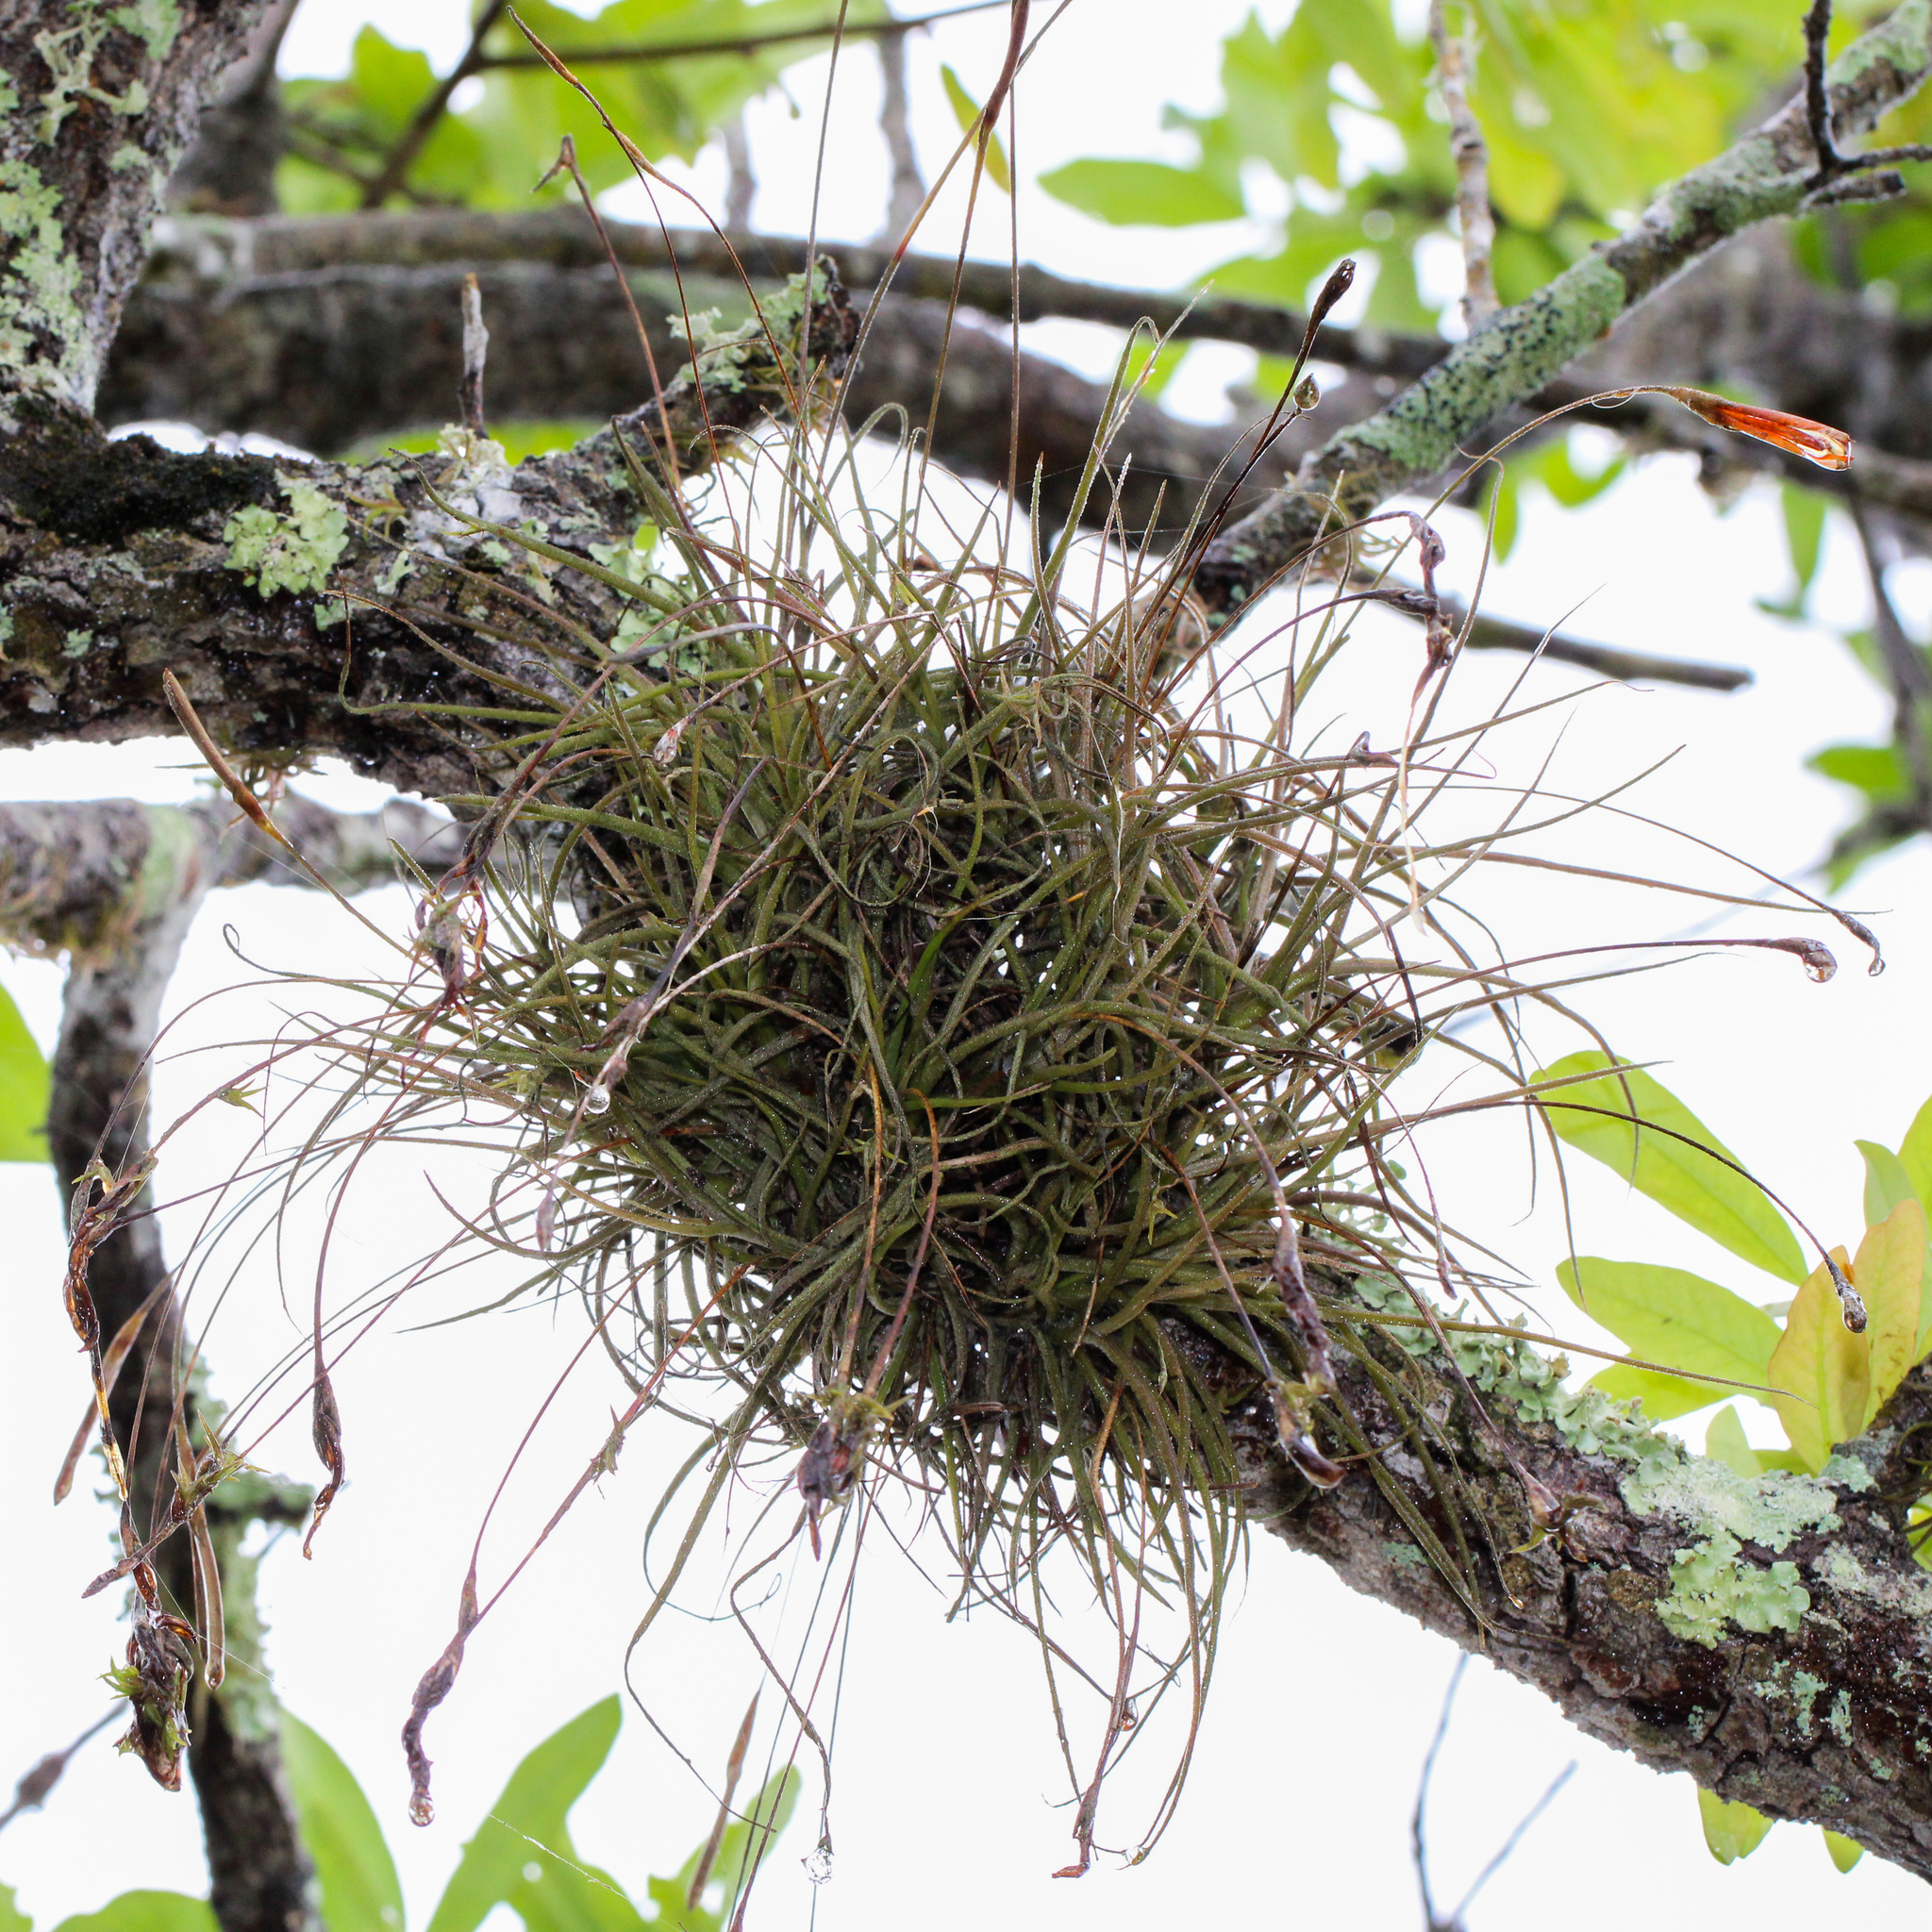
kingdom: Plantae
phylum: Tracheophyta
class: Liliopsida
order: Poales
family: Bromeliaceae
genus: Tillandsia
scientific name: Tillandsia recurvata
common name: Small ballmoss
